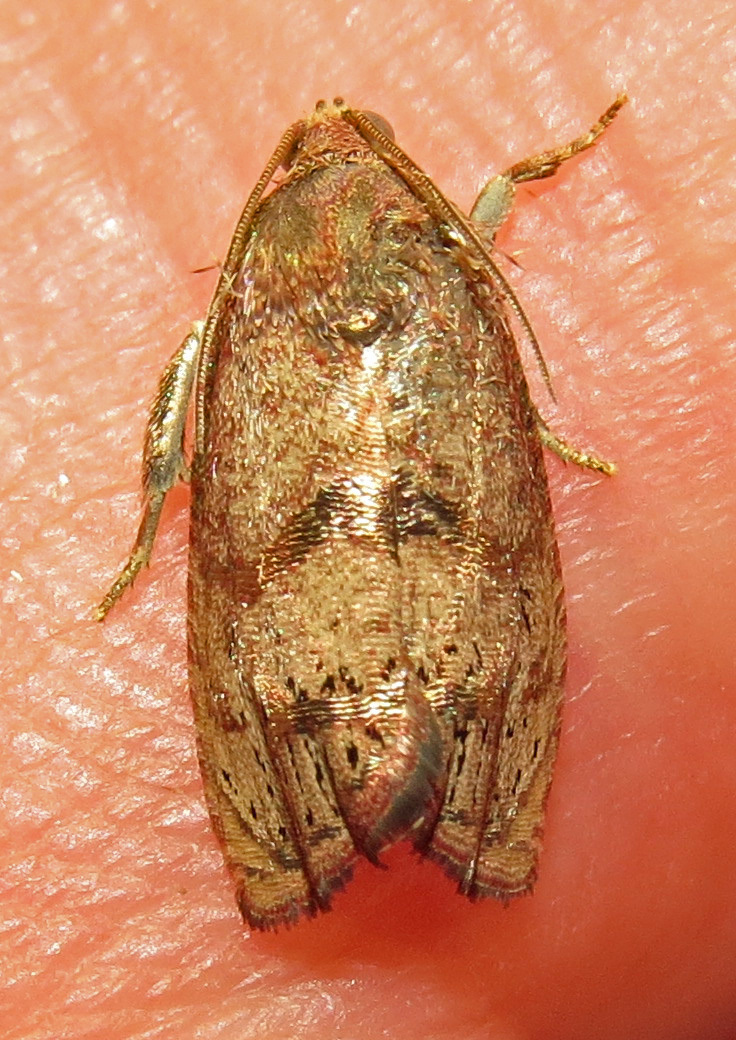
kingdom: Animalia
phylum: Arthropoda
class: Insecta
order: Lepidoptera
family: Tortricidae
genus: Cydia
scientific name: Cydia latiferreana
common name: Filbertworm moth
